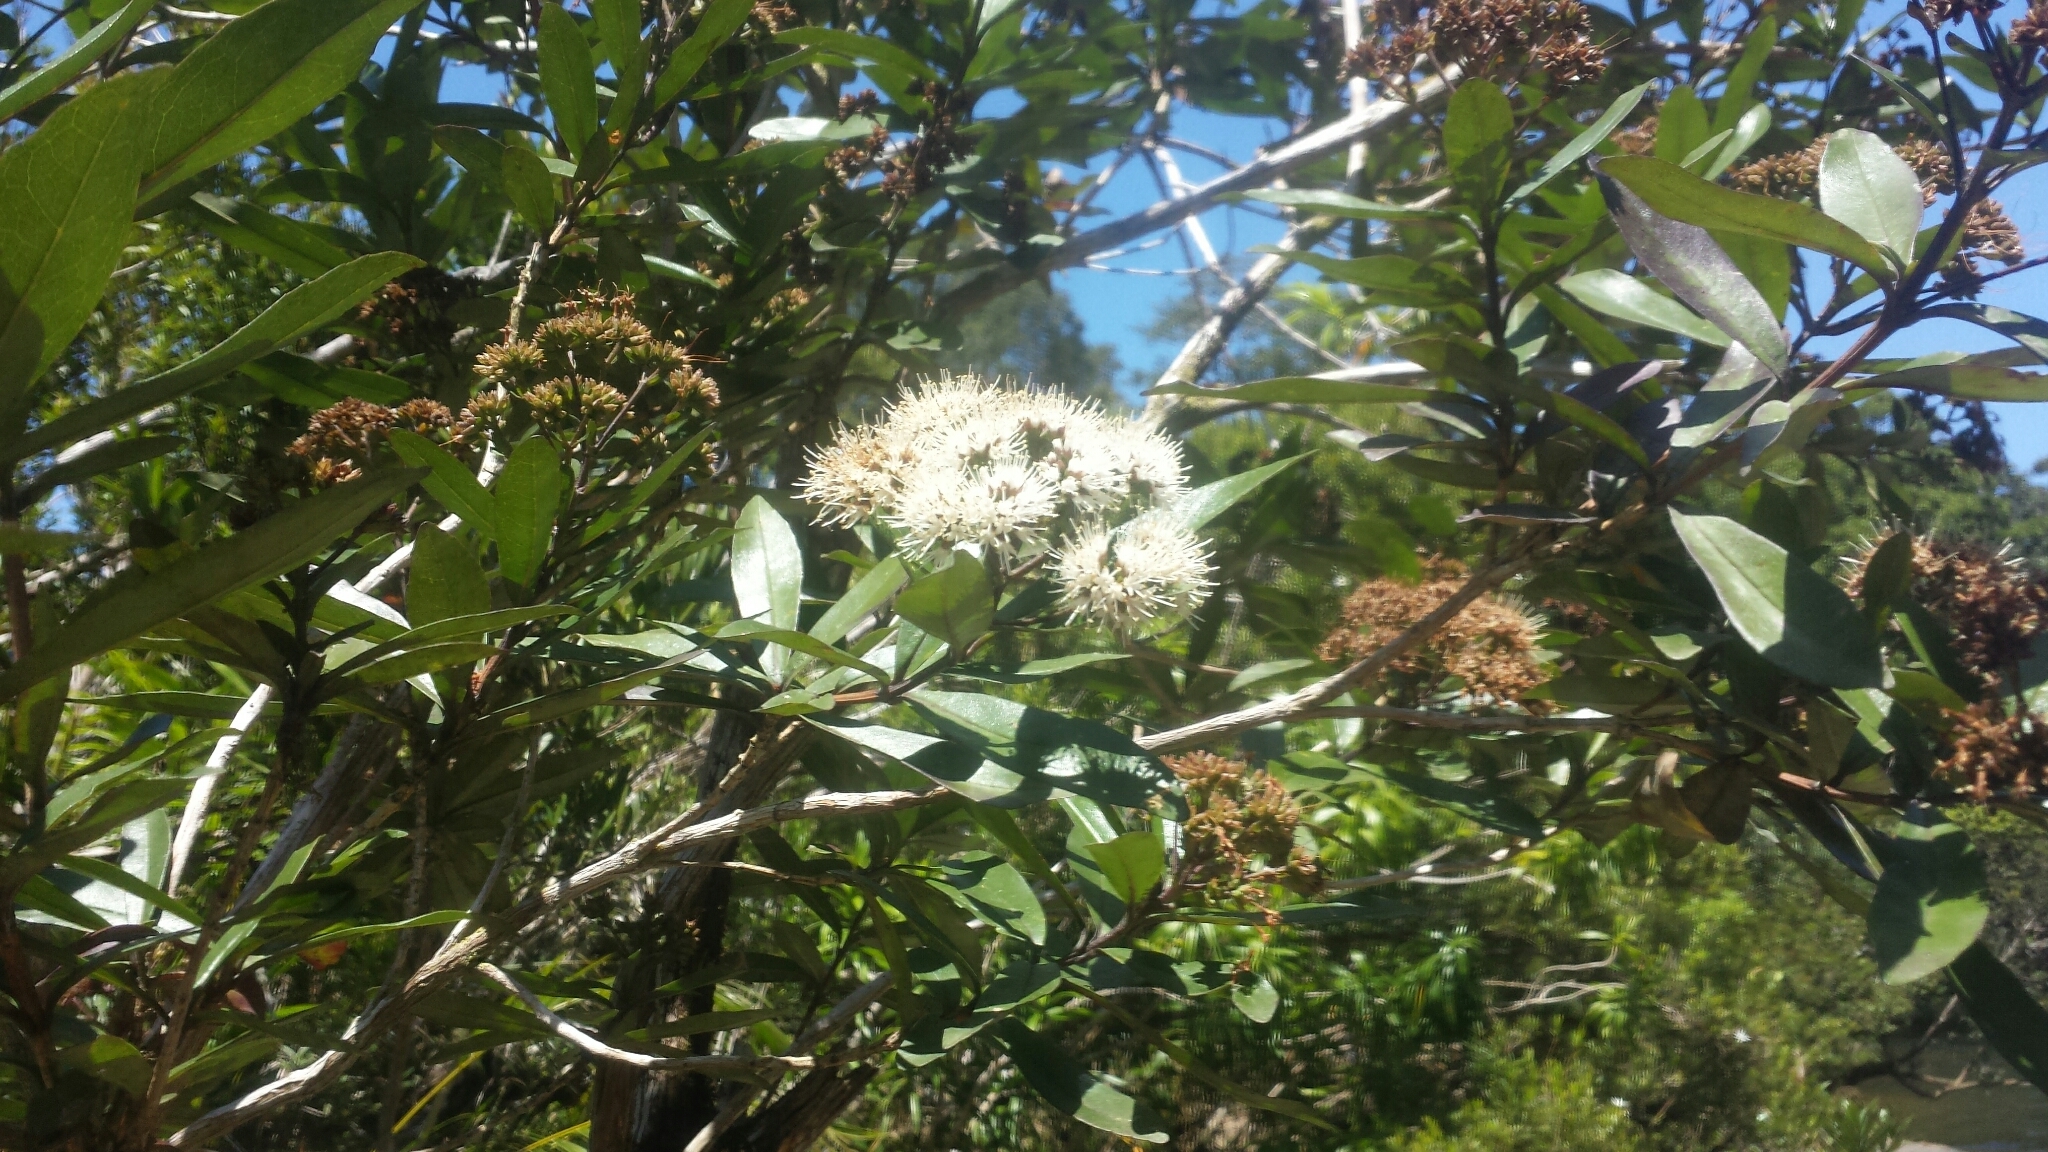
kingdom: Plantae
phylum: Tracheophyta
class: Magnoliopsida
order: Lamiales
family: Stilbaceae
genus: Nuxia
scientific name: Nuxia involucrata
